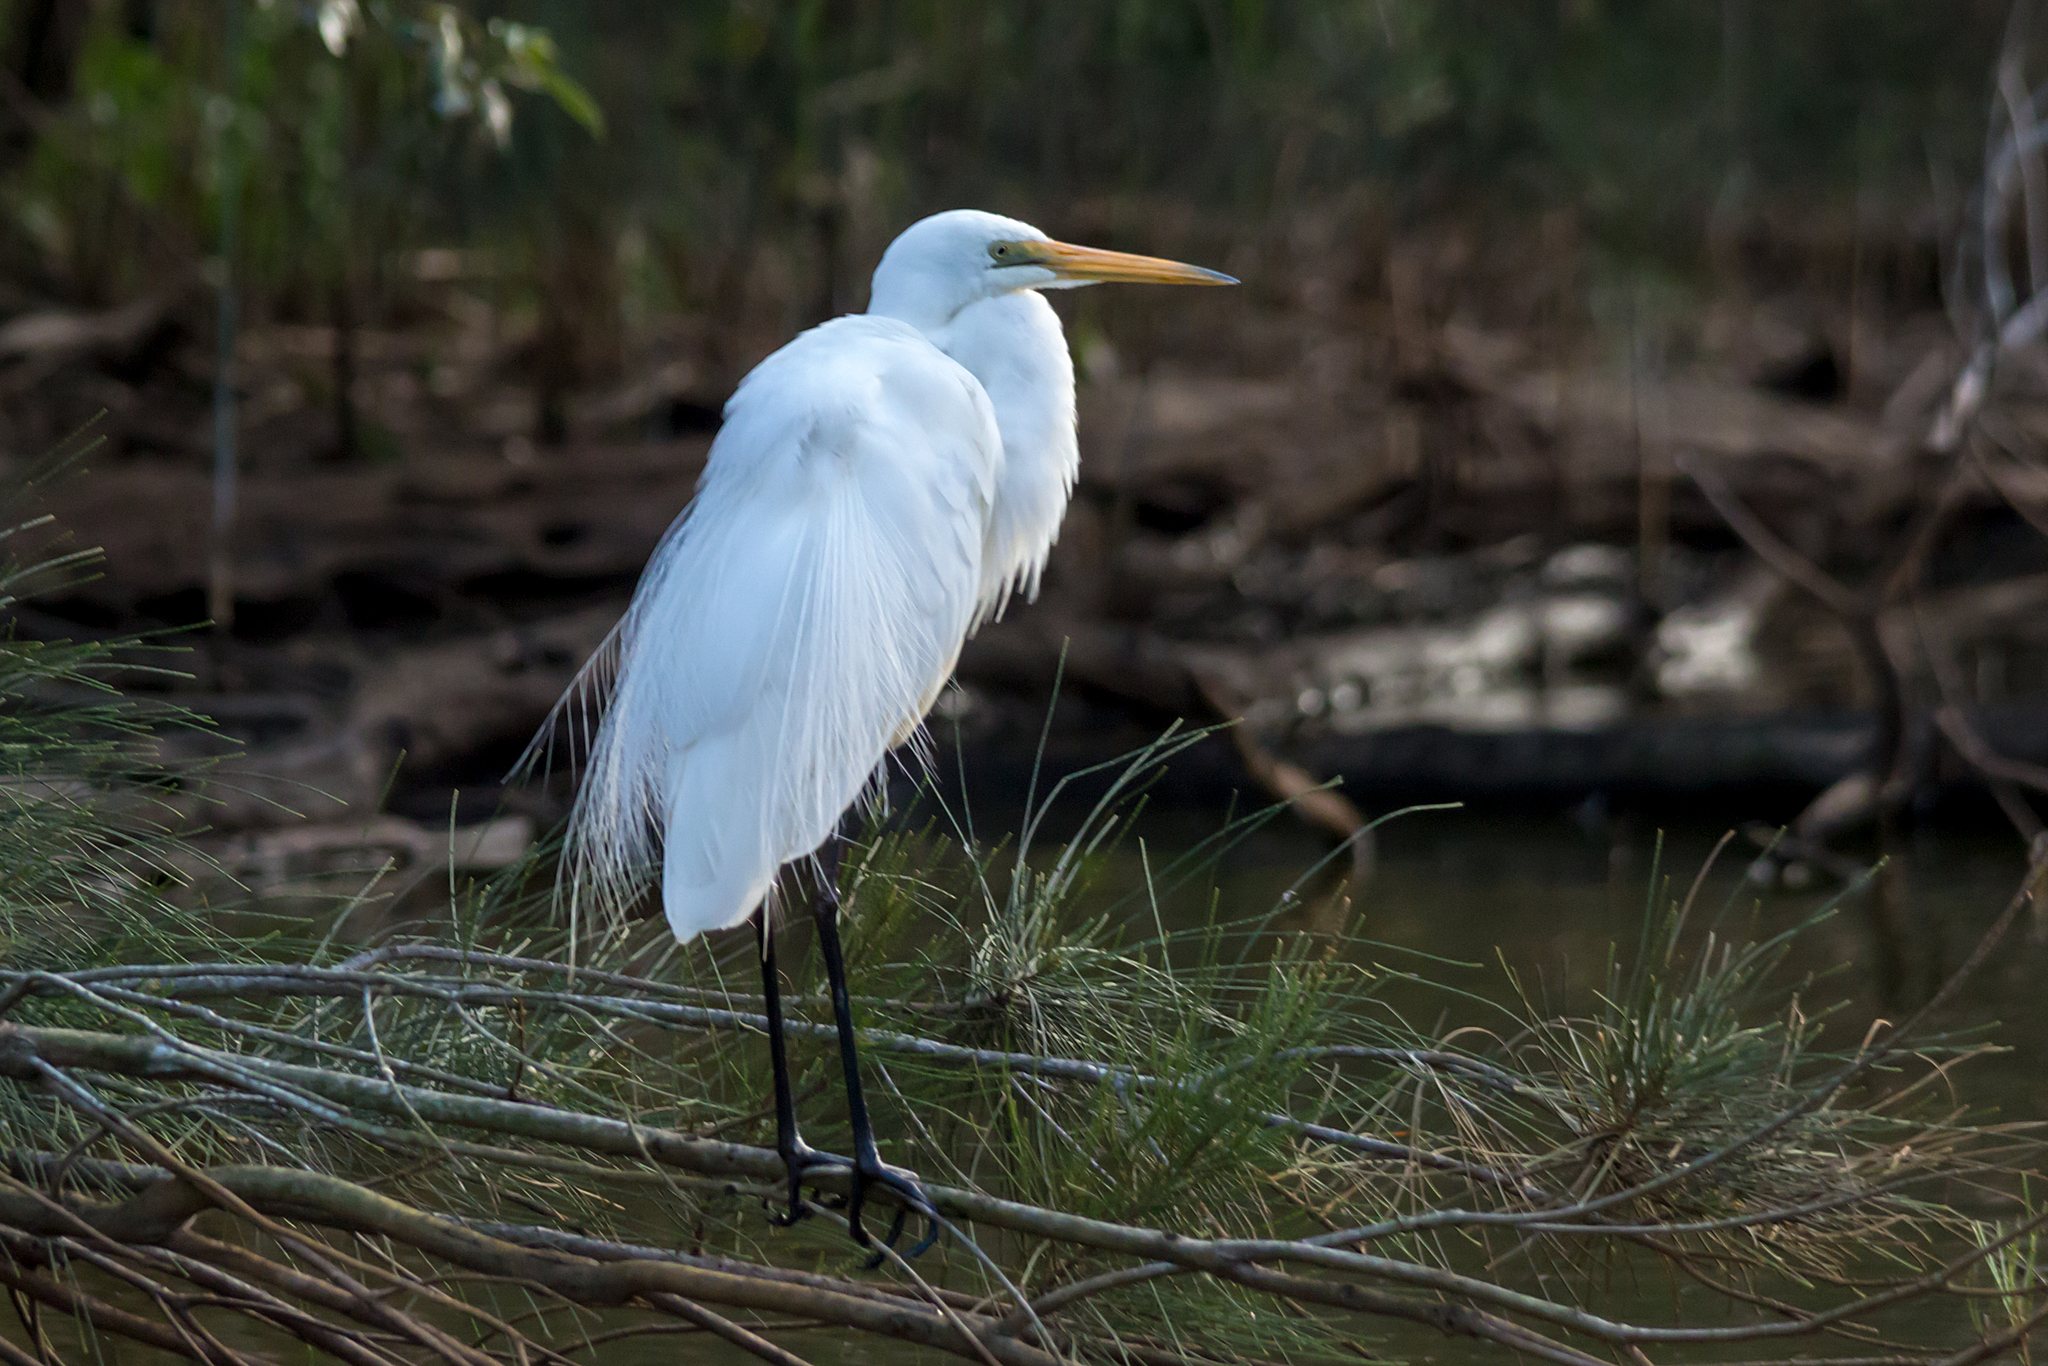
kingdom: Animalia
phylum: Chordata
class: Aves
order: Pelecaniformes
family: Ardeidae
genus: Ardea
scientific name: Ardea alba
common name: Great egret
